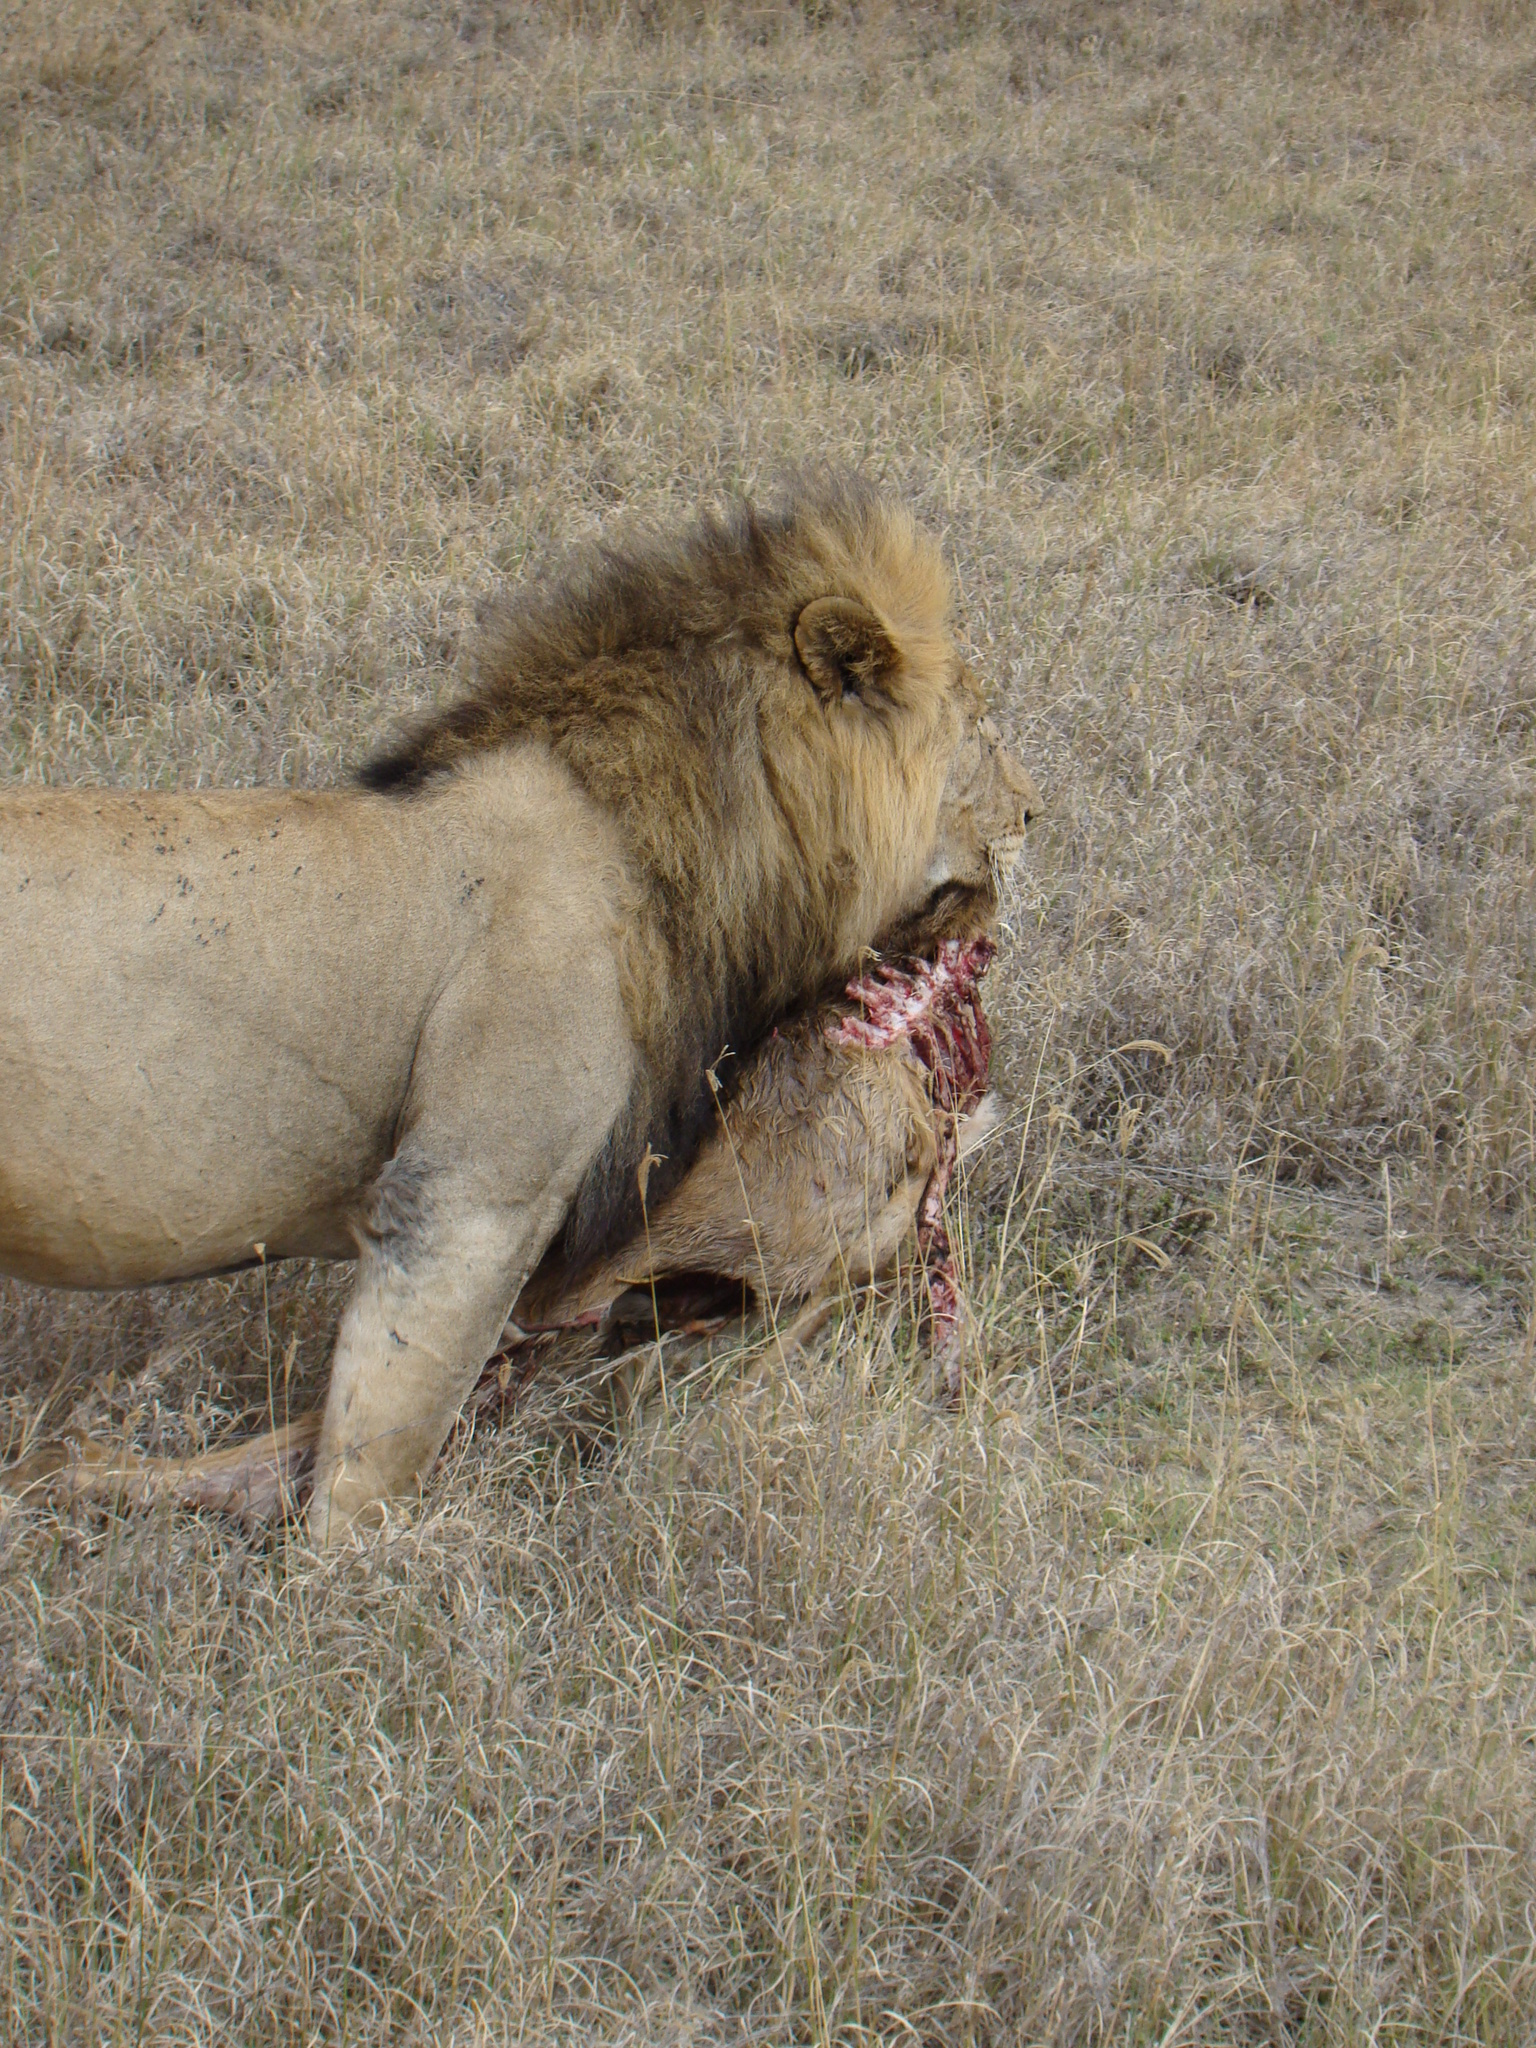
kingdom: Animalia
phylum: Chordata
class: Mammalia
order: Carnivora
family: Felidae
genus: Panthera
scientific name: Panthera leo
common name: Lion
